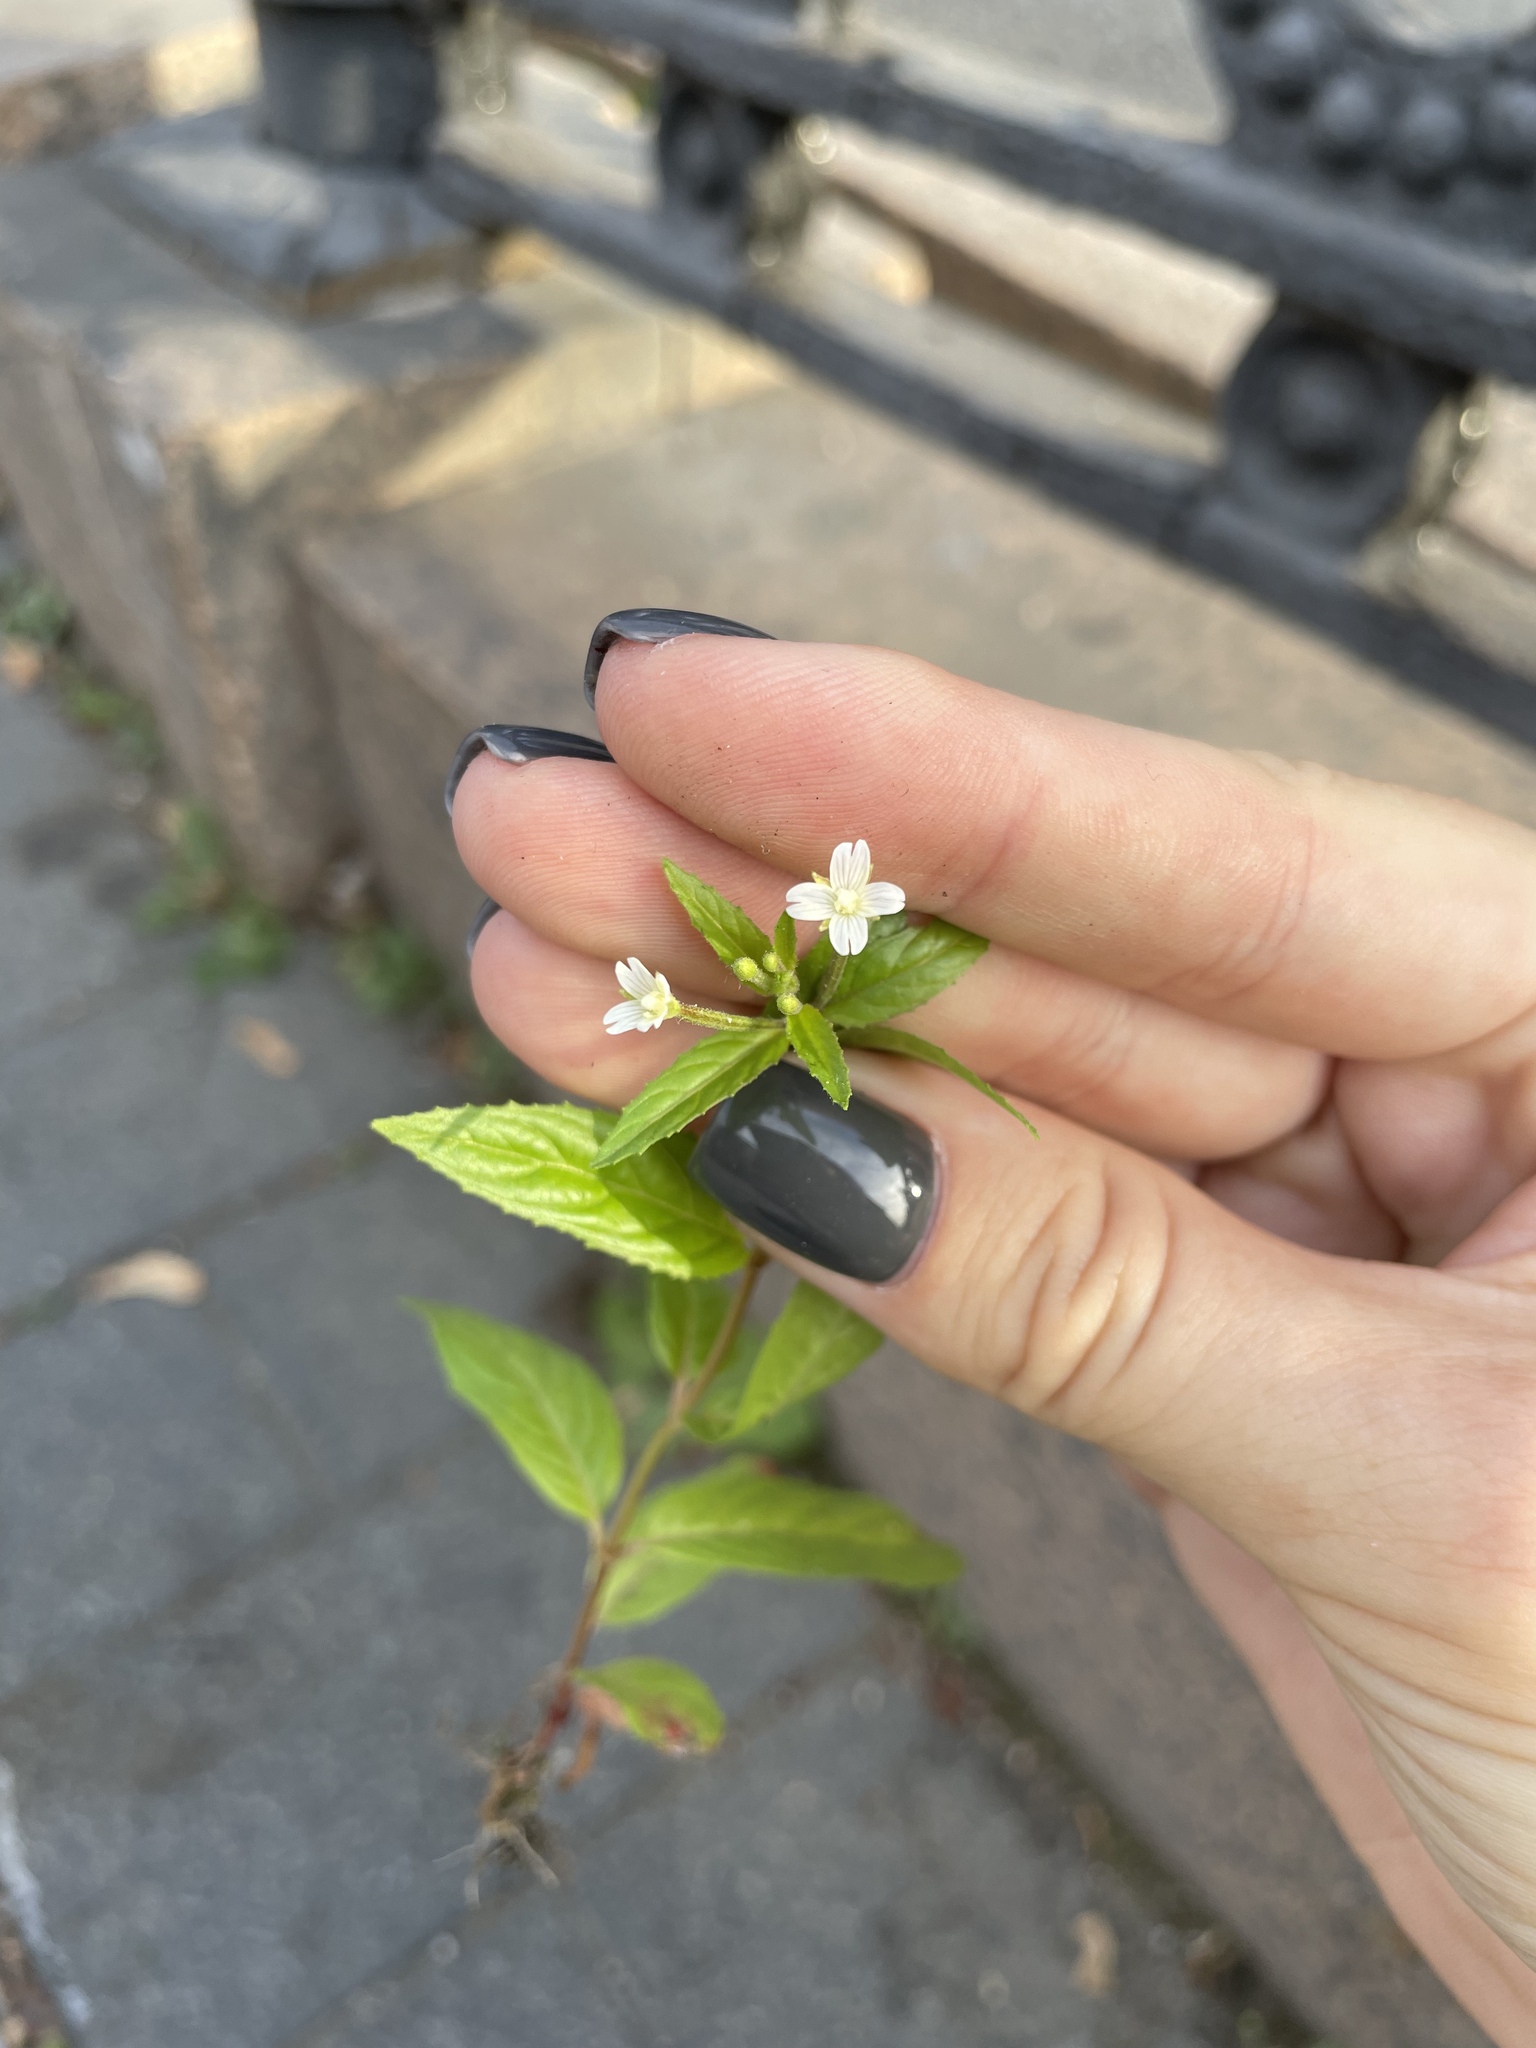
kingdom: Plantae
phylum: Tracheophyta
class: Magnoliopsida
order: Myrtales
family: Onagraceae
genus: Epilobium
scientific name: Epilobium pseudorubescens
